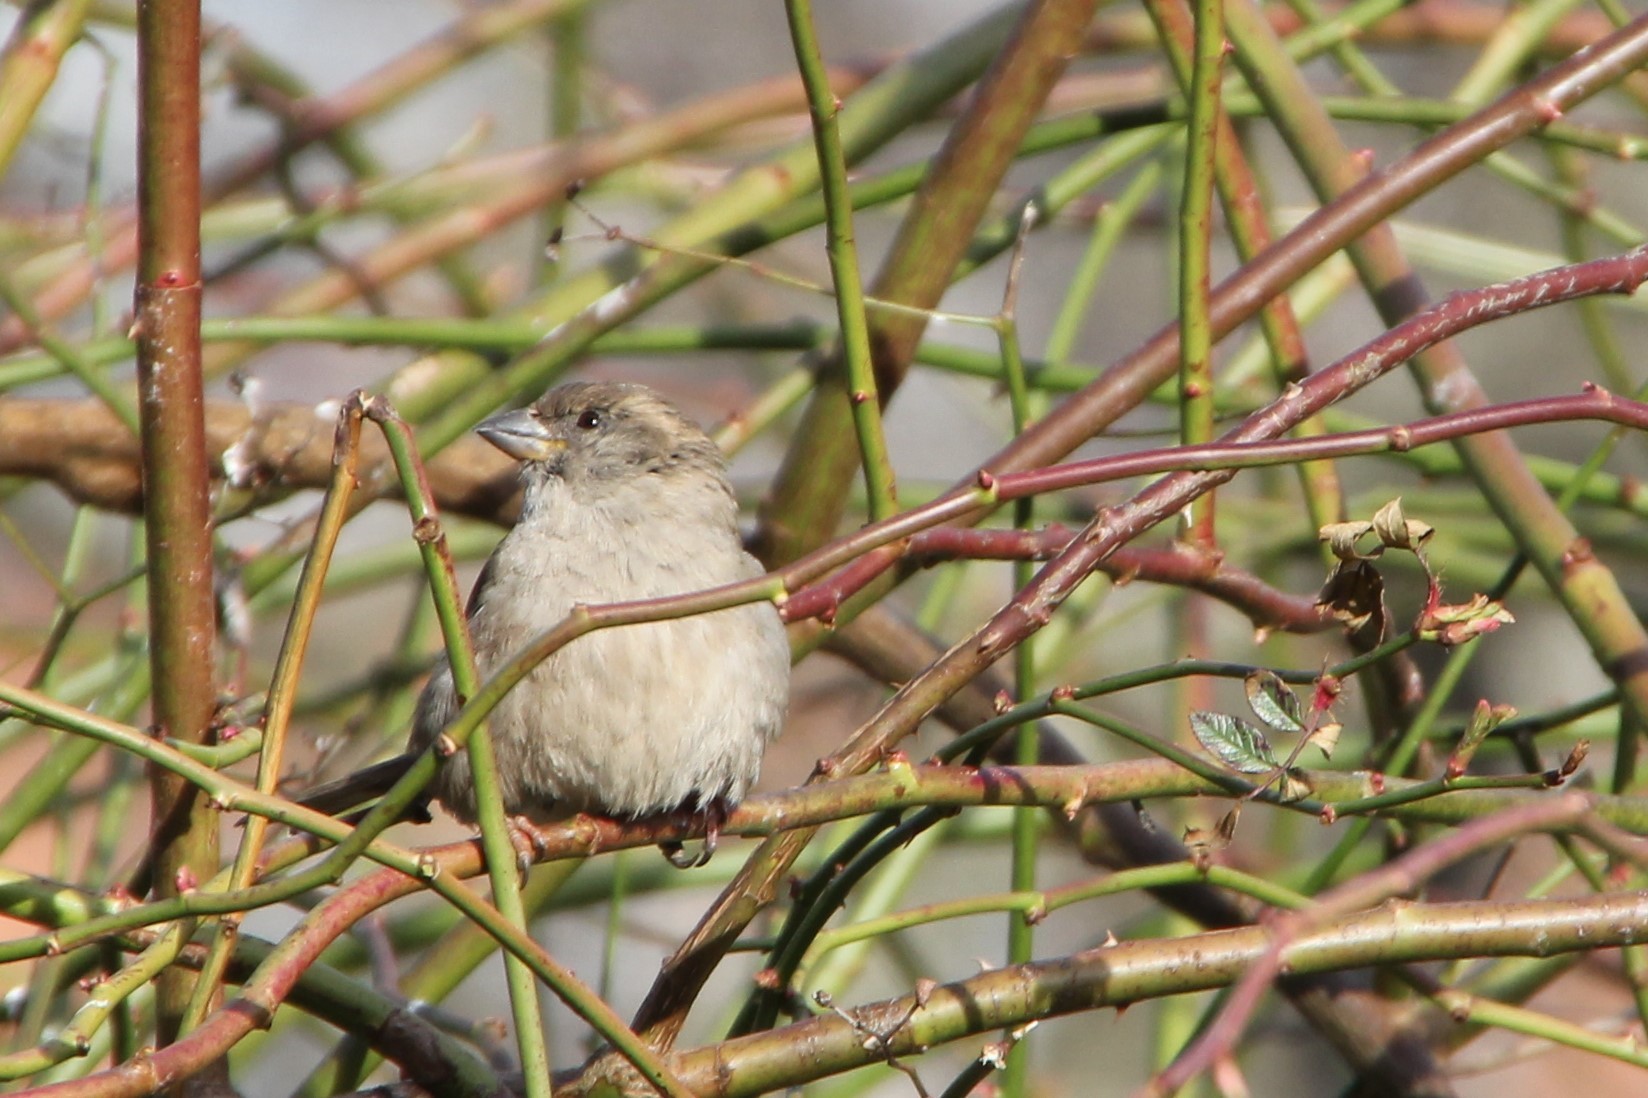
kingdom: Animalia
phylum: Chordata
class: Aves
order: Passeriformes
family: Passeridae
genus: Passer
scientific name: Passer domesticus
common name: House sparrow
